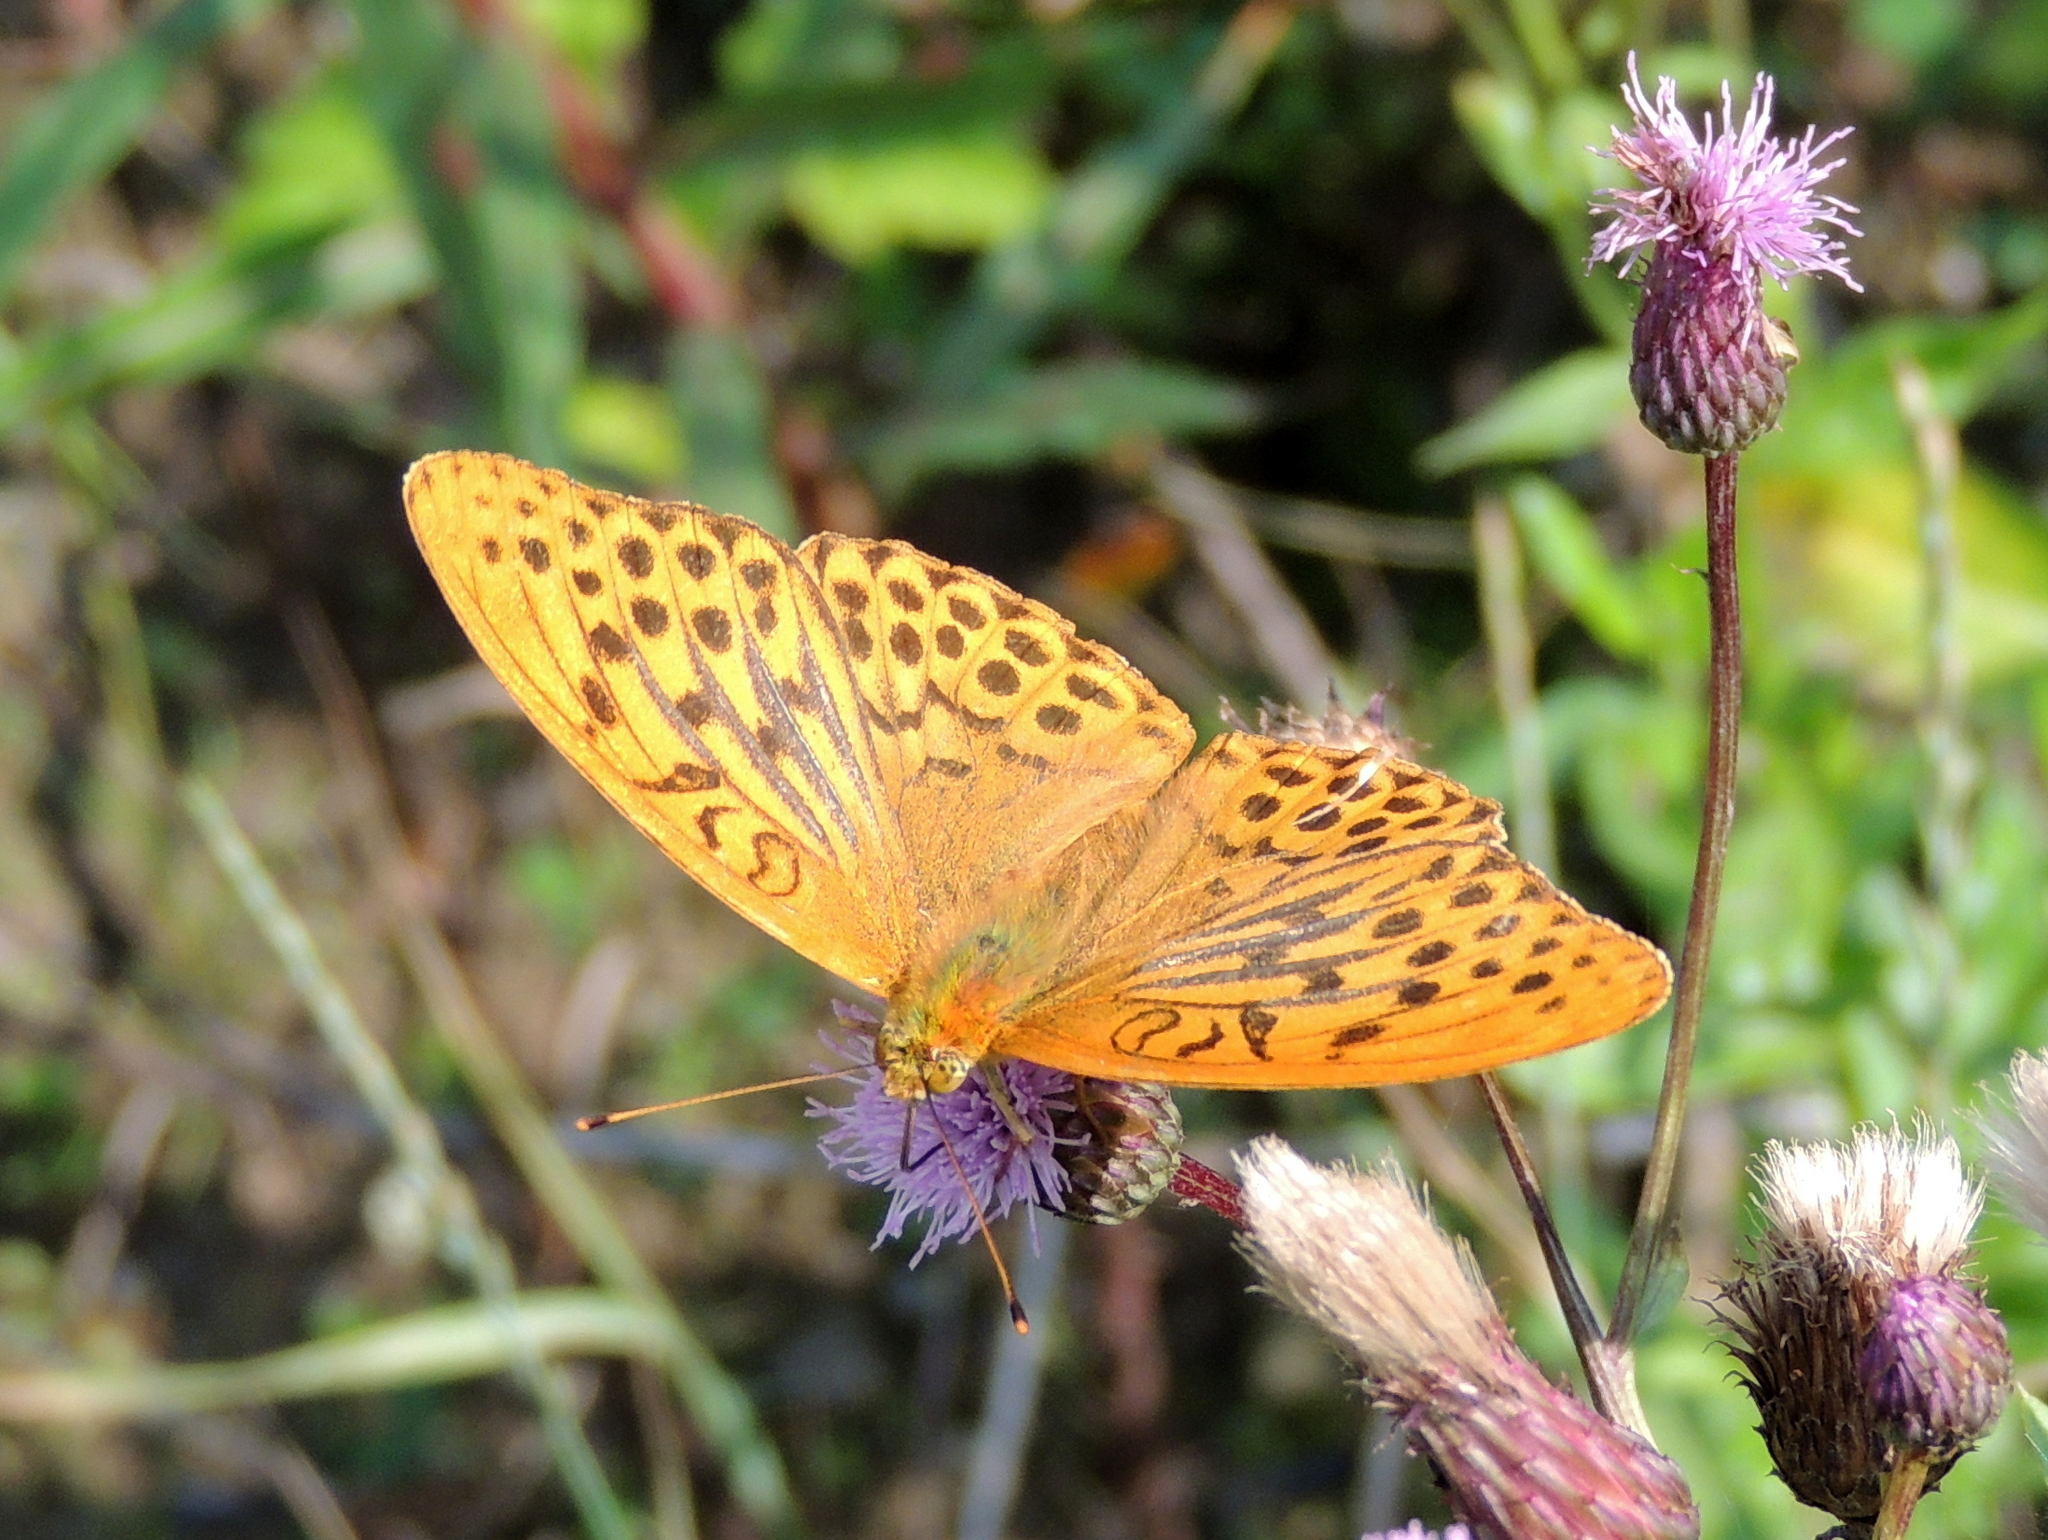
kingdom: Animalia
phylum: Arthropoda
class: Insecta
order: Lepidoptera
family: Nymphalidae
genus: Argynnis
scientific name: Argynnis paphia
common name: Silver-washed fritillary
